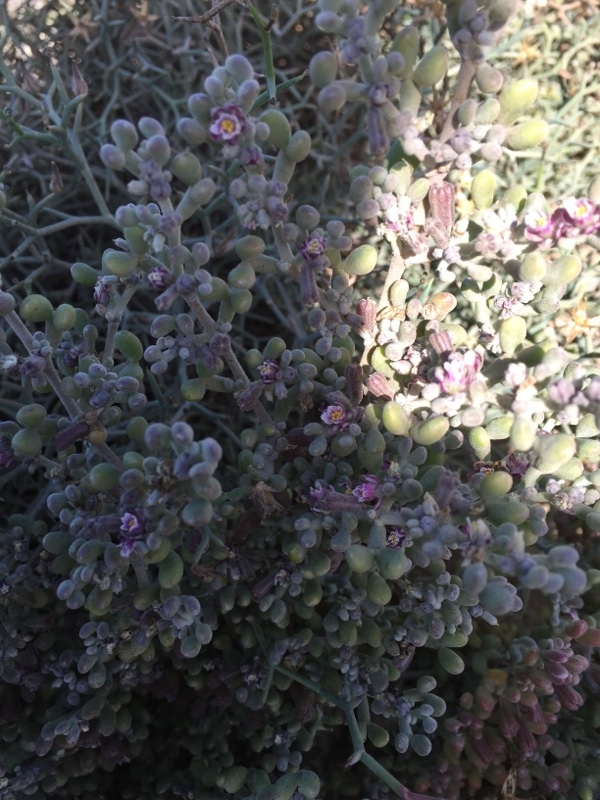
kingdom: Plantae
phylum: Tracheophyta
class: Magnoliopsida
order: Zygophyllales
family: Zygophyllaceae
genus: Tetraena
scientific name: Tetraena fontanesii
